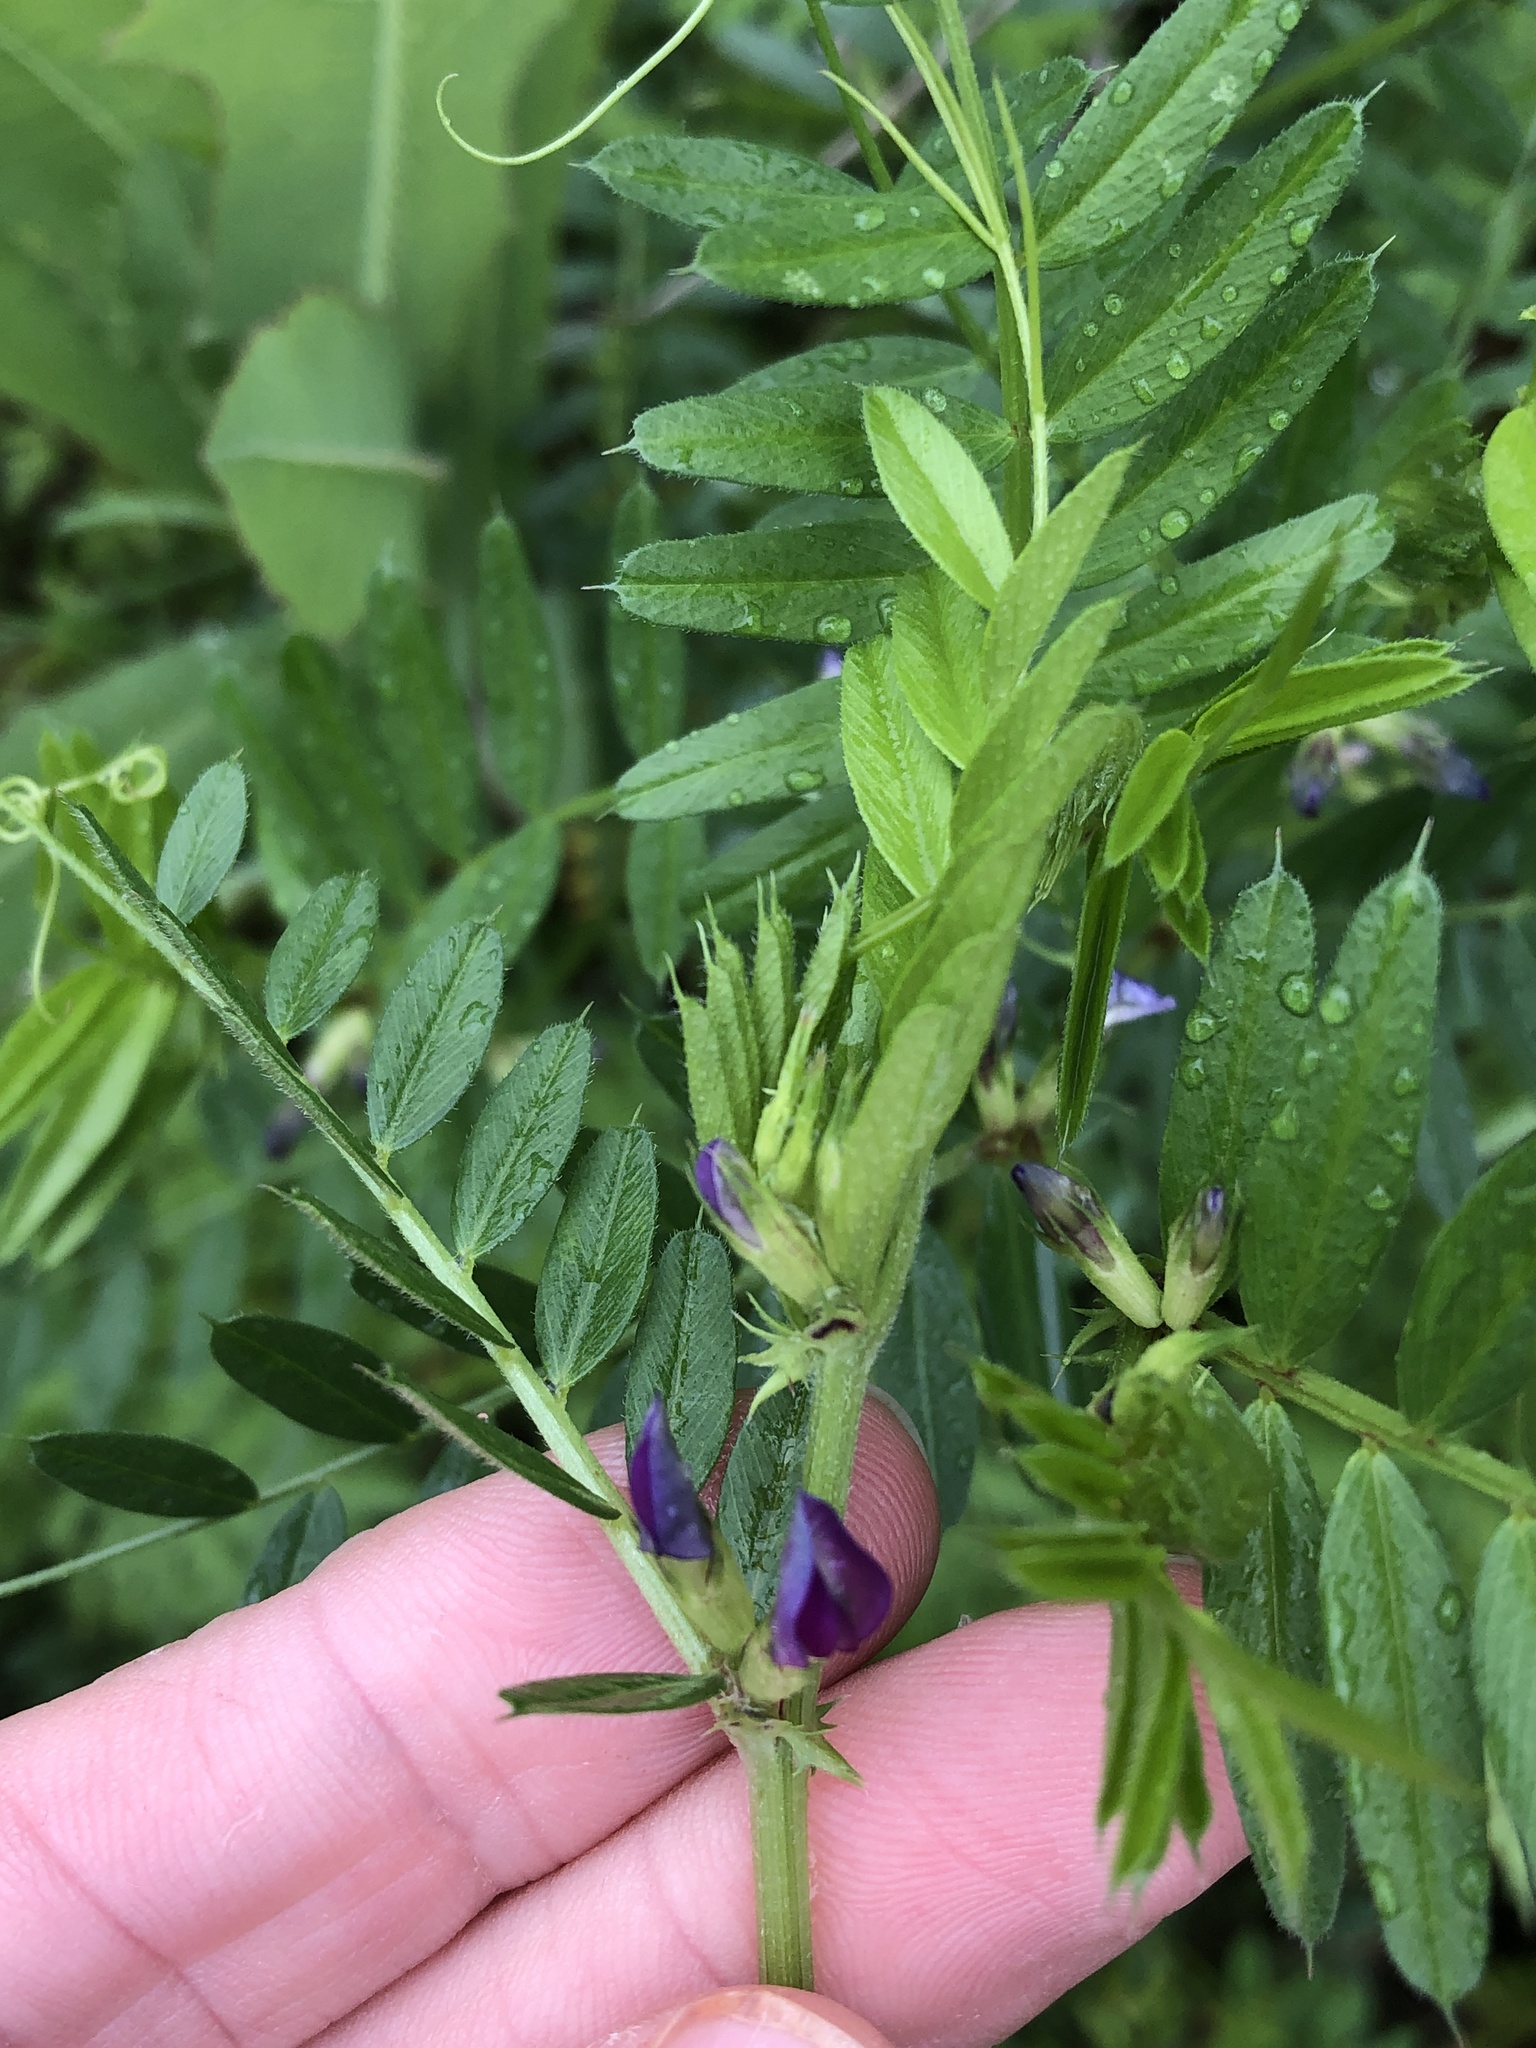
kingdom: Plantae
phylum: Tracheophyta
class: Magnoliopsida
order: Fabales
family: Fabaceae
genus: Vicia
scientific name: Vicia sativa
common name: Garden vetch
